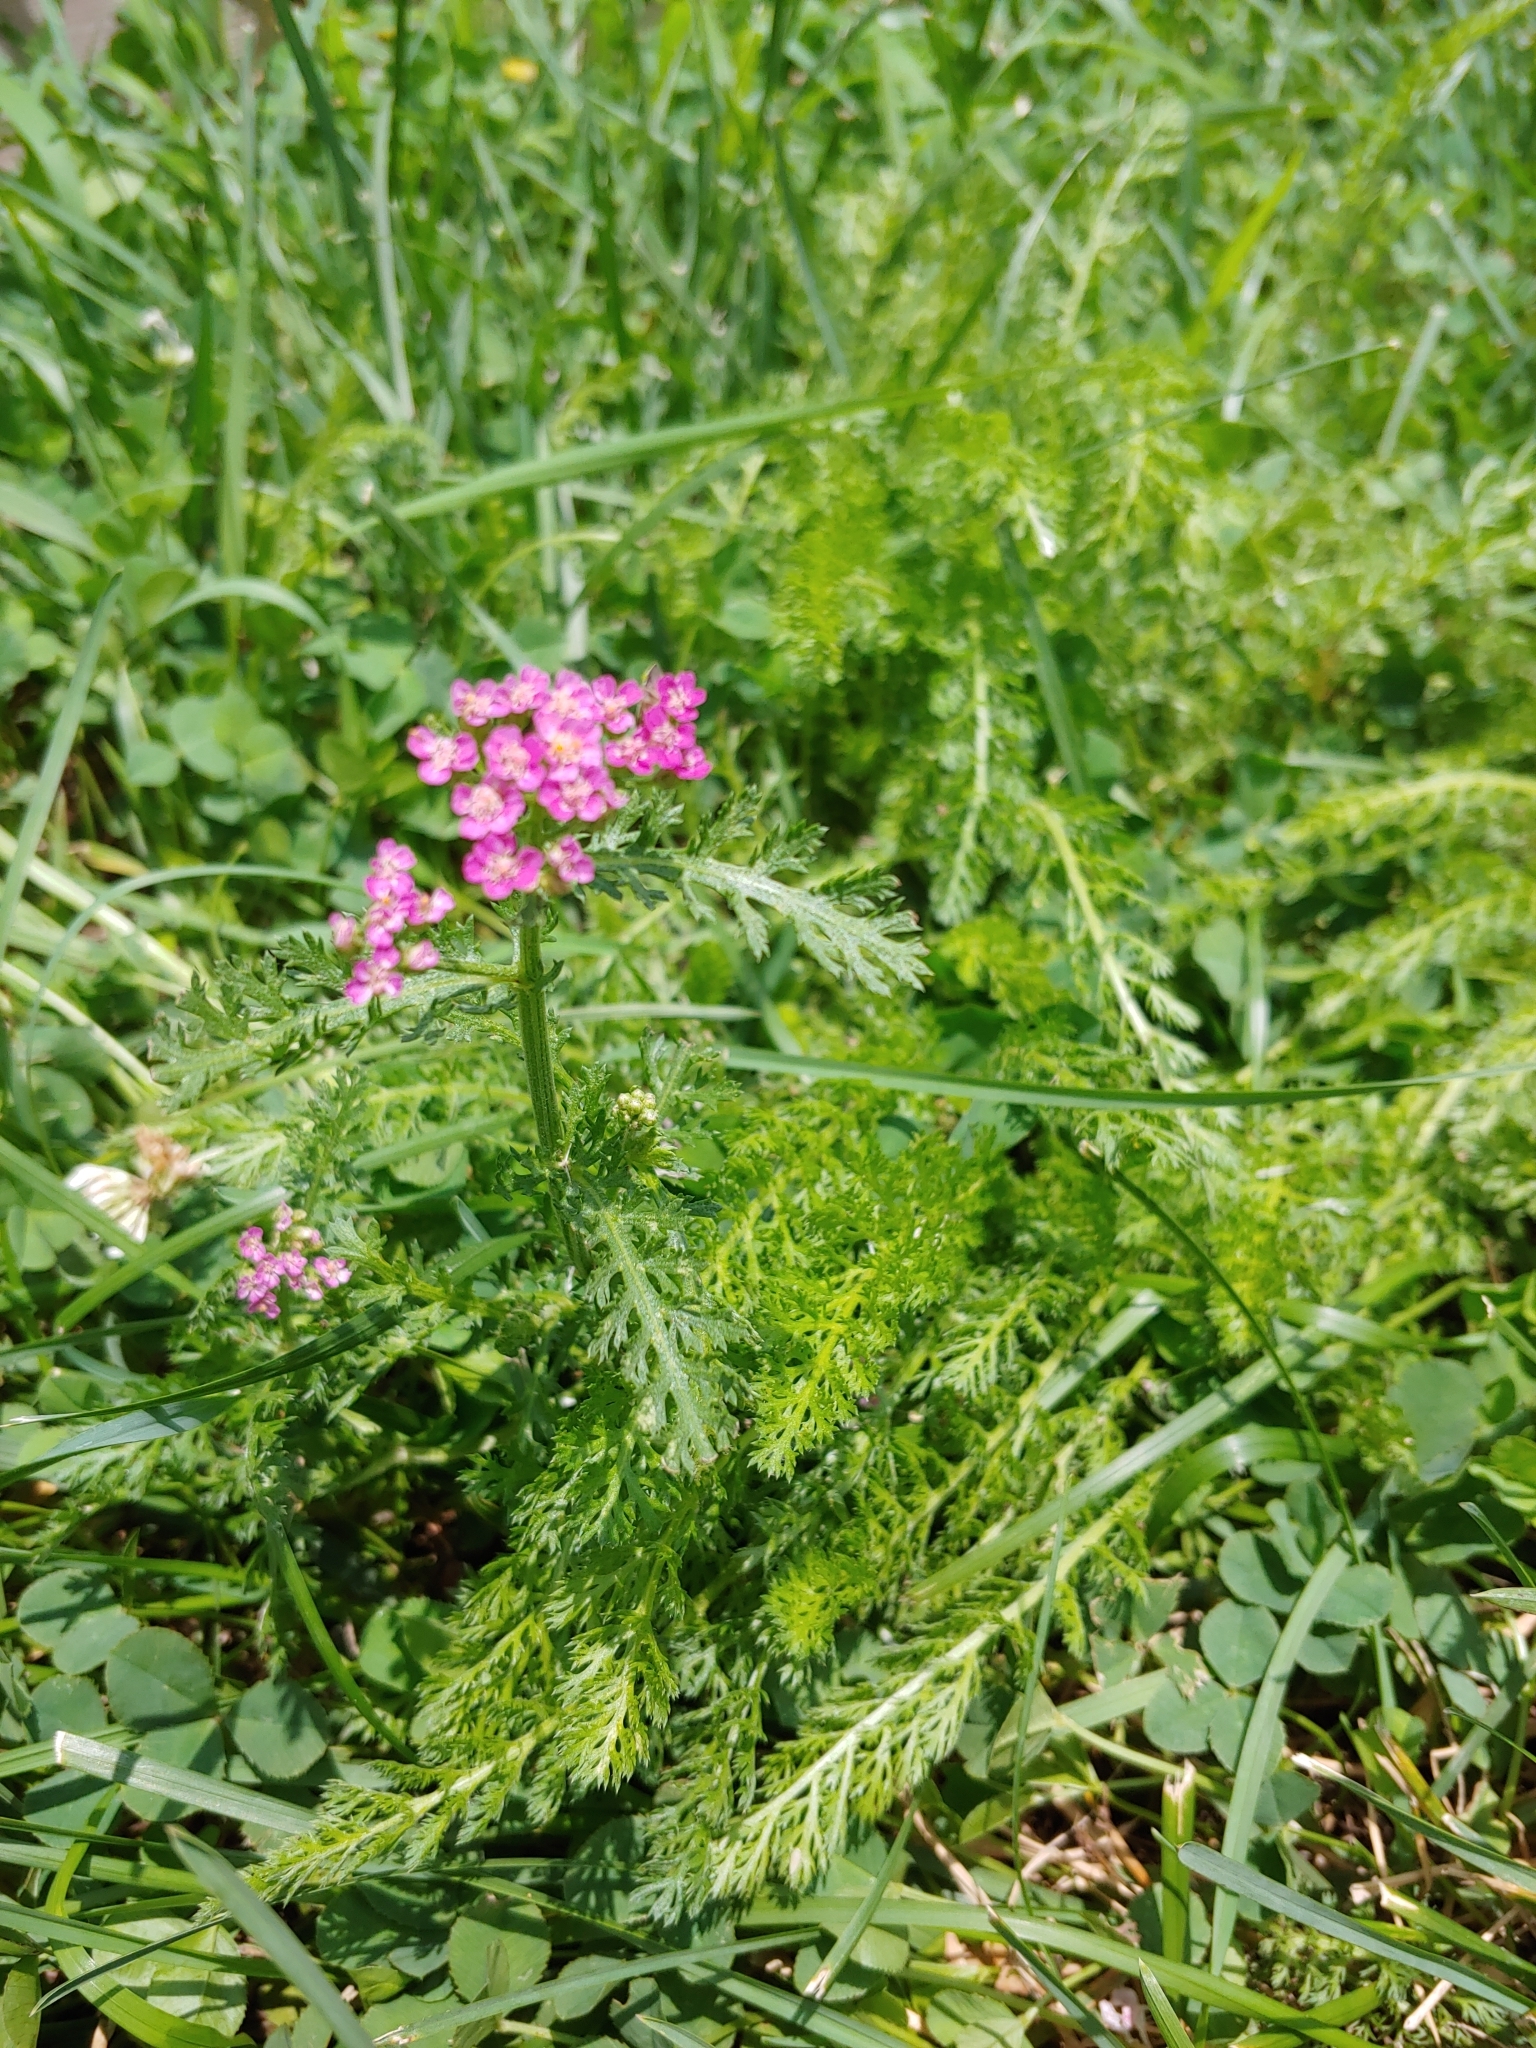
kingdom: Plantae
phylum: Tracheophyta
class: Magnoliopsida
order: Asterales
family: Asteraceae
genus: Achillea
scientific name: Achillea millefolium
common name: Yarrow
